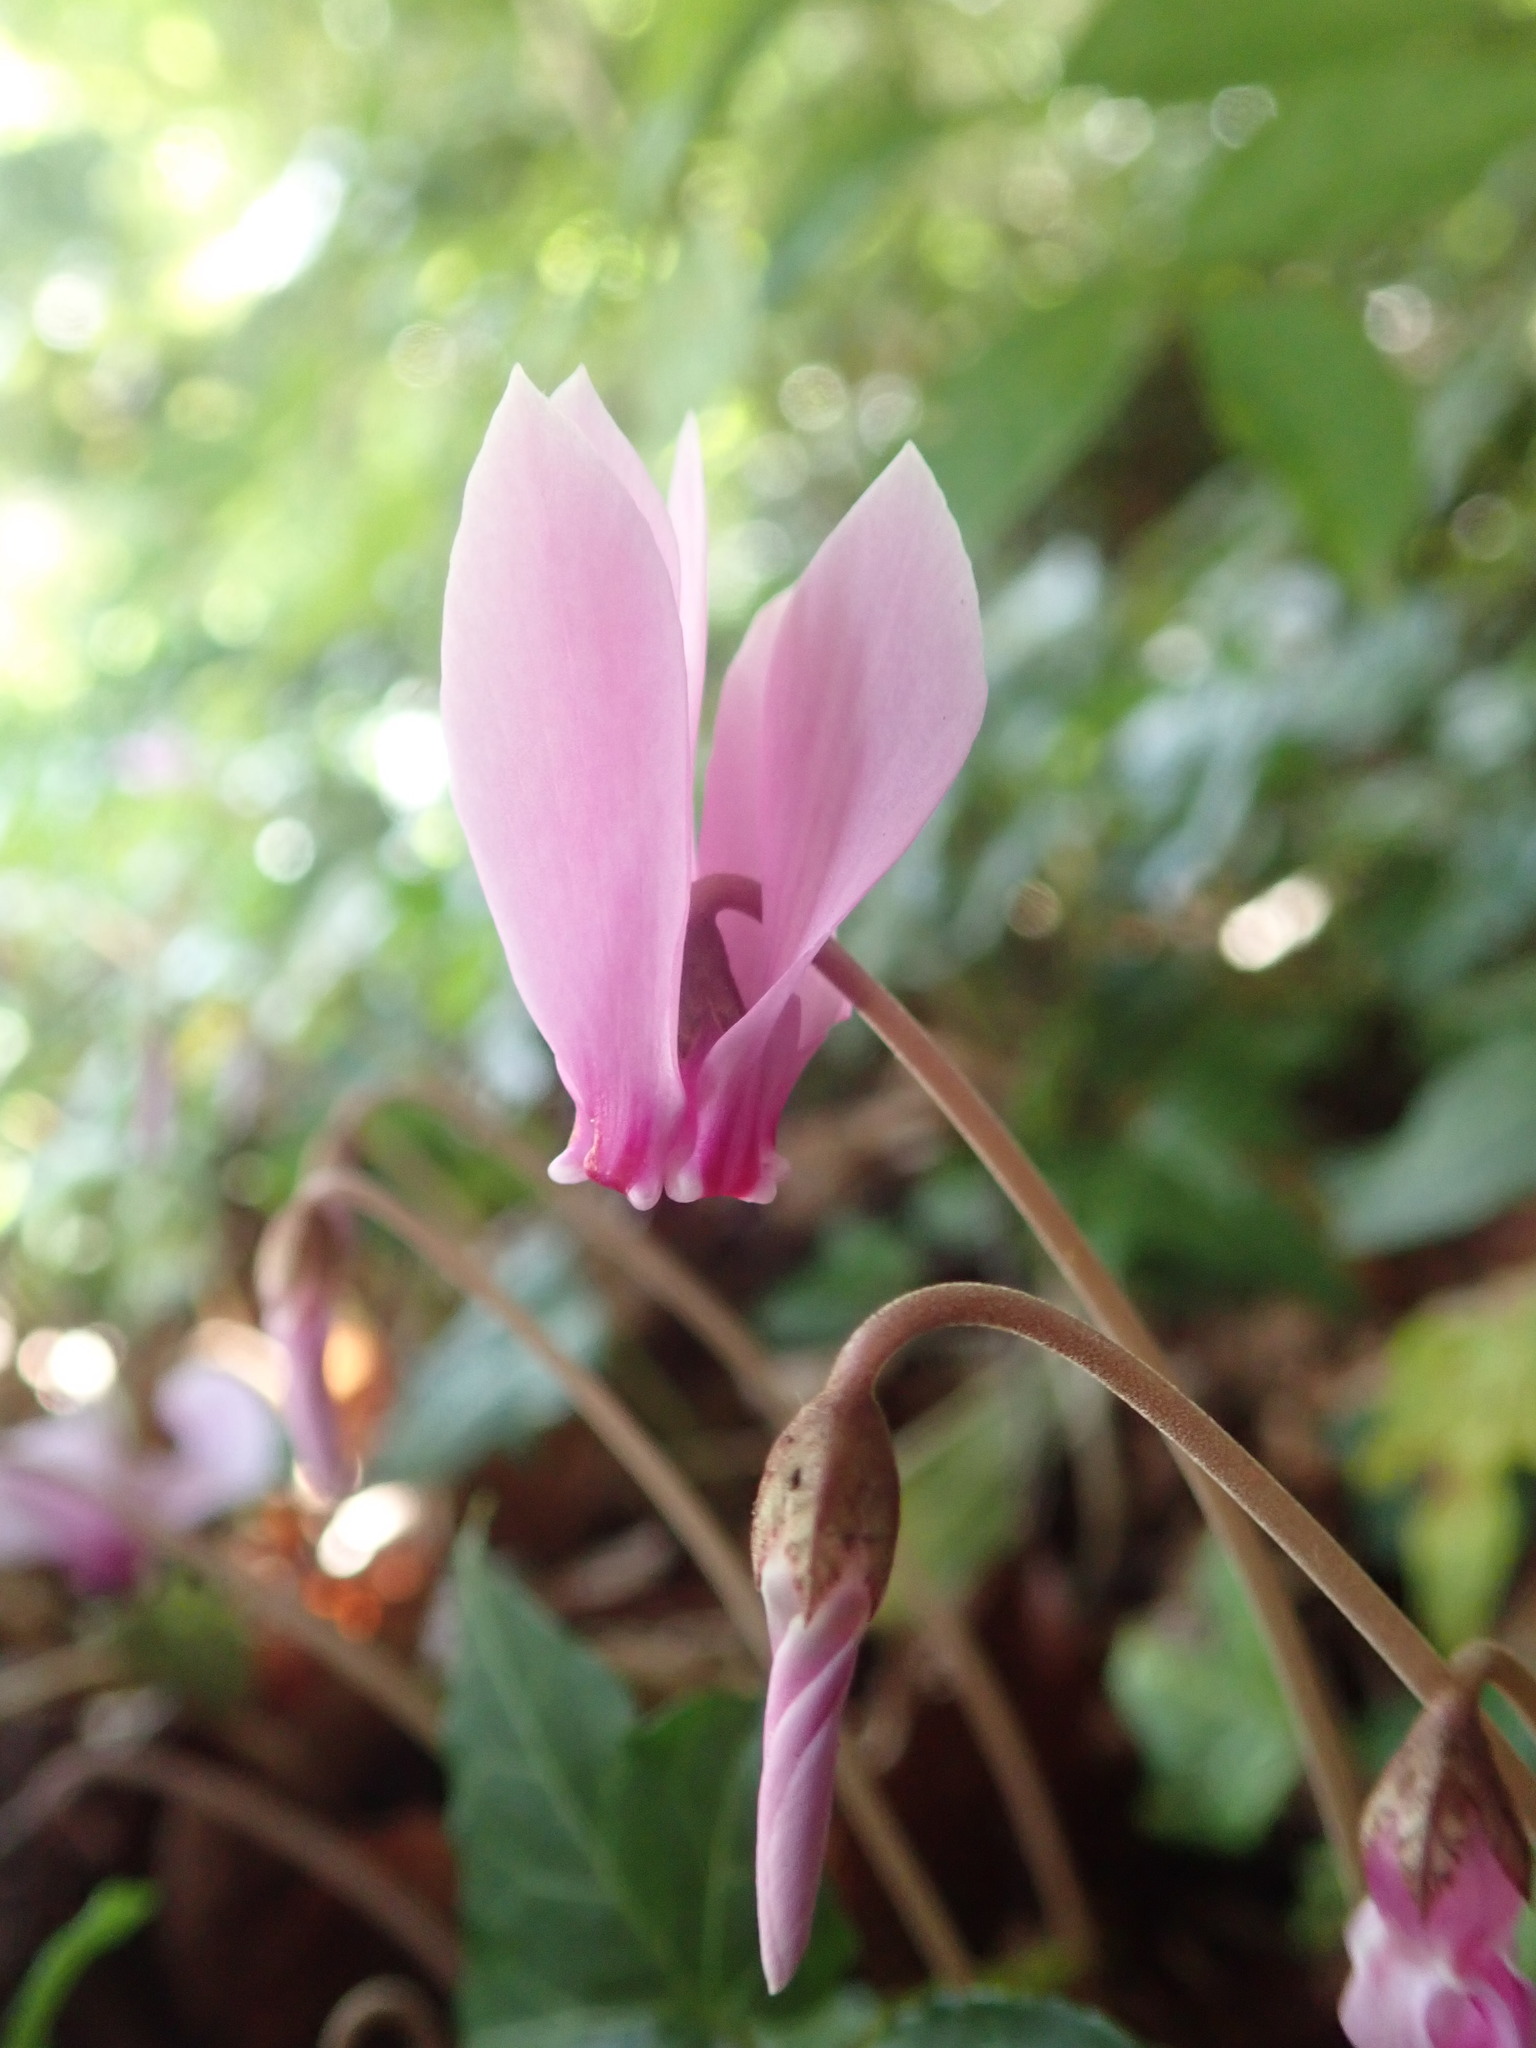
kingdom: Plantae
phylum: Tracheophyta
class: Magnoliopsida
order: Ericales
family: Primulaceae
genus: Cyclamen
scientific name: Cyclamen hederifolium
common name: Sowbread
